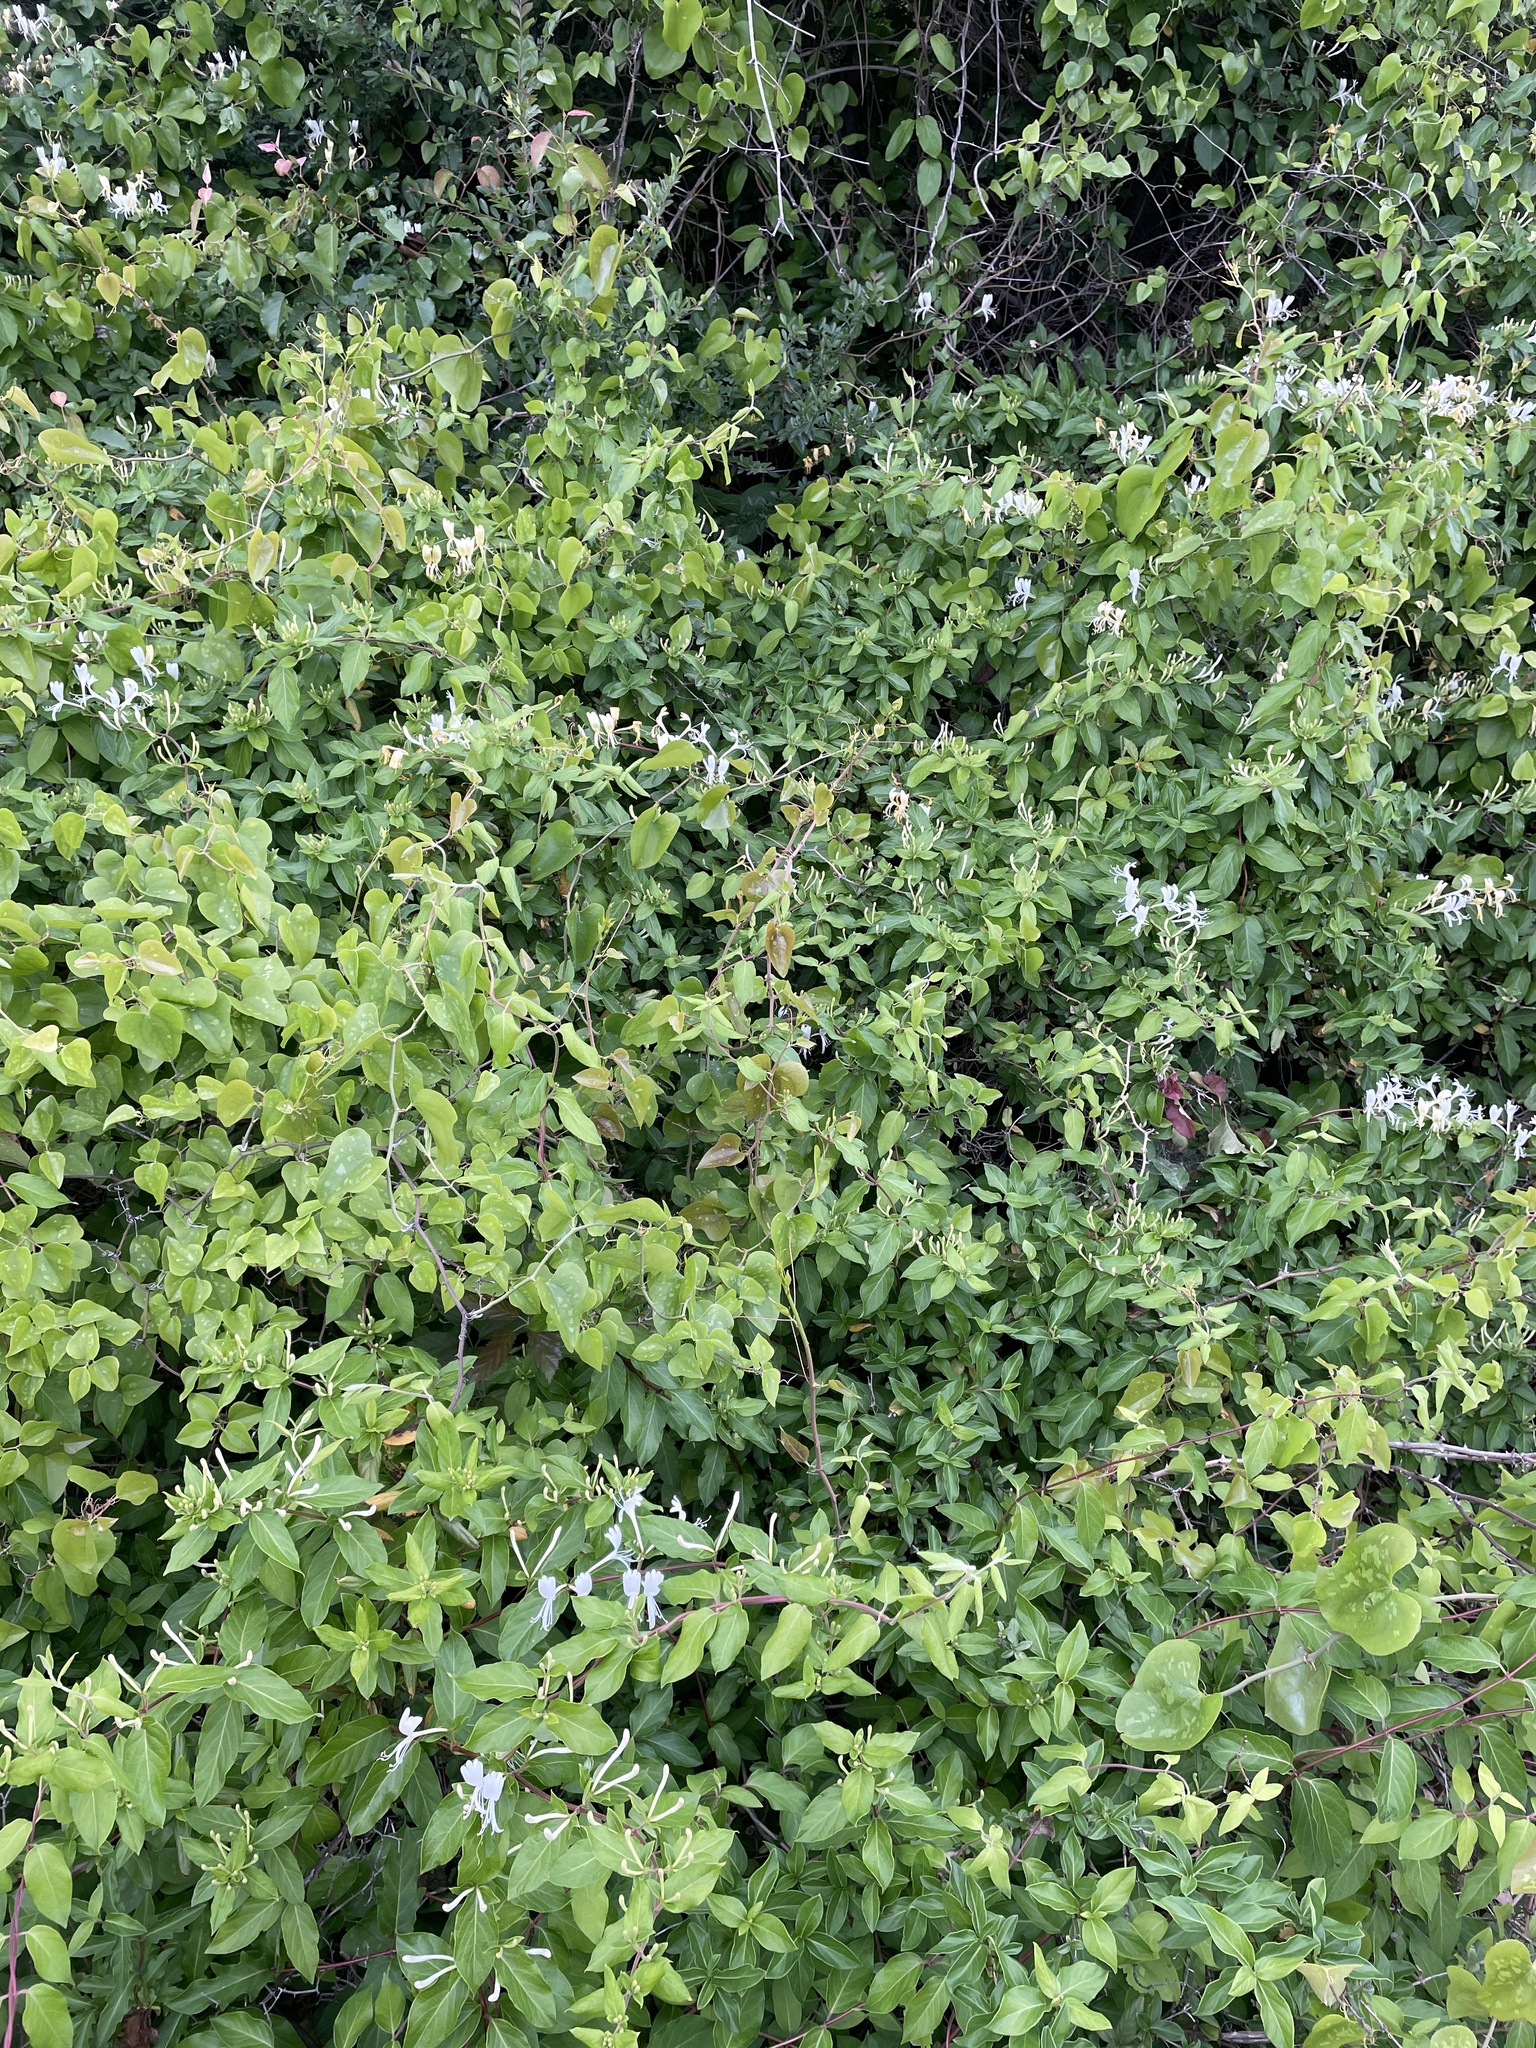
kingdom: Plantae
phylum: Tracheophyta
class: Magnoliopsida
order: Dipsacales
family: Caprifoliaceae
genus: Lonicera
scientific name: Lonicera japonica
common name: Japanese honeysuckle
